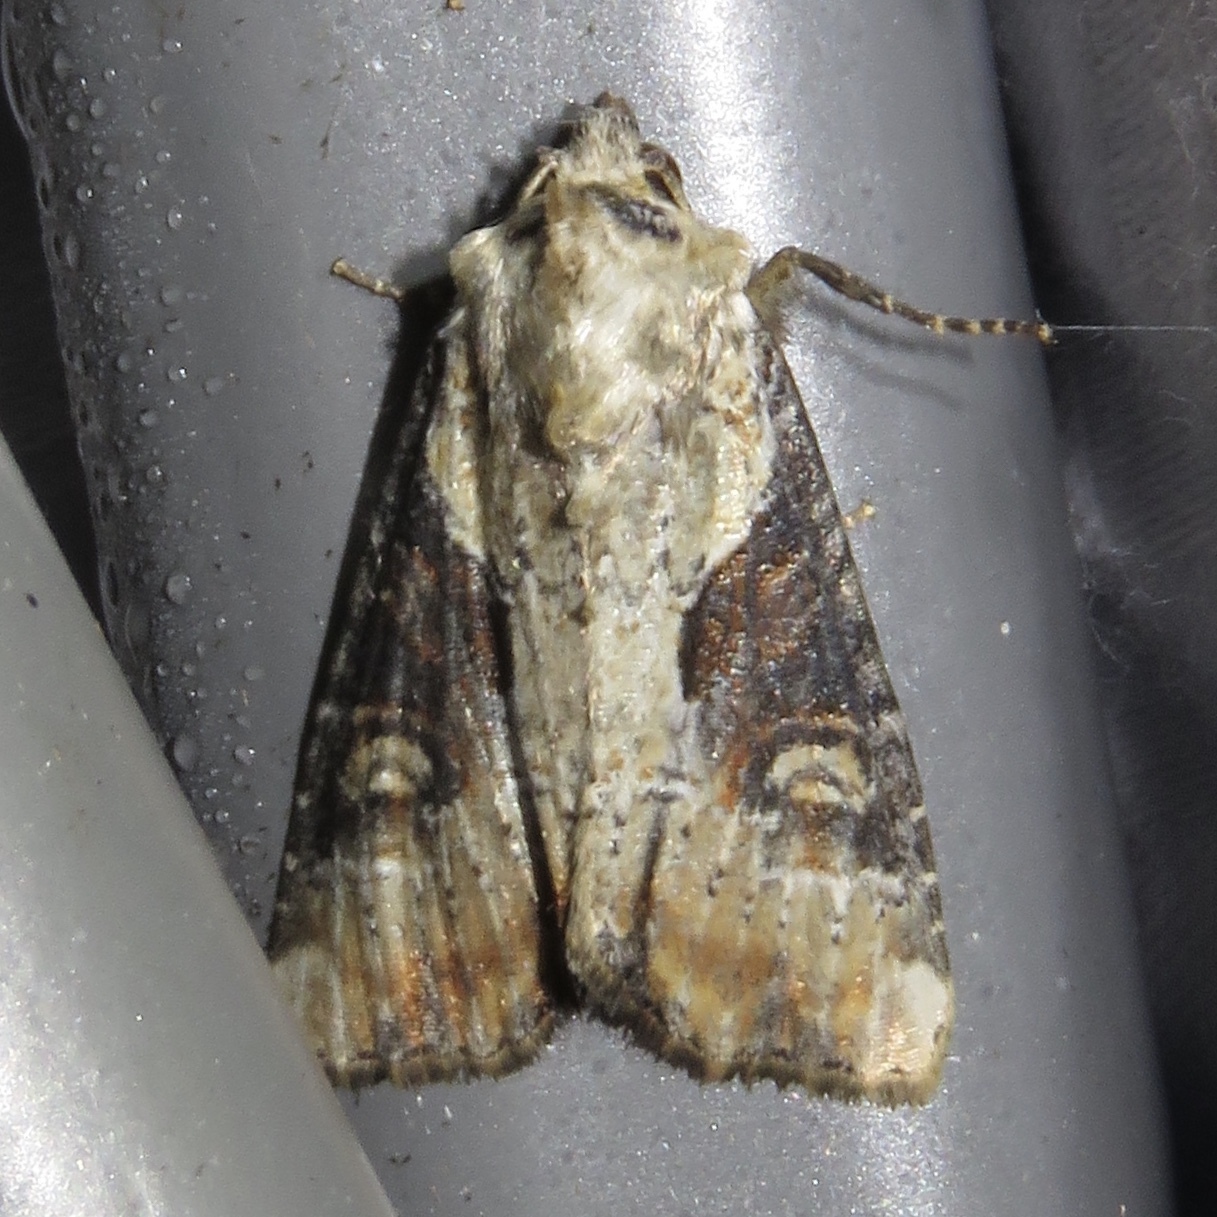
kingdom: Animalia
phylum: Arthropoda
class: Insecta
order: Lepidoptera
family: Noctuidae
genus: Lateroligia
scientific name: Lateroligia ophiogramma
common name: Double lobed
